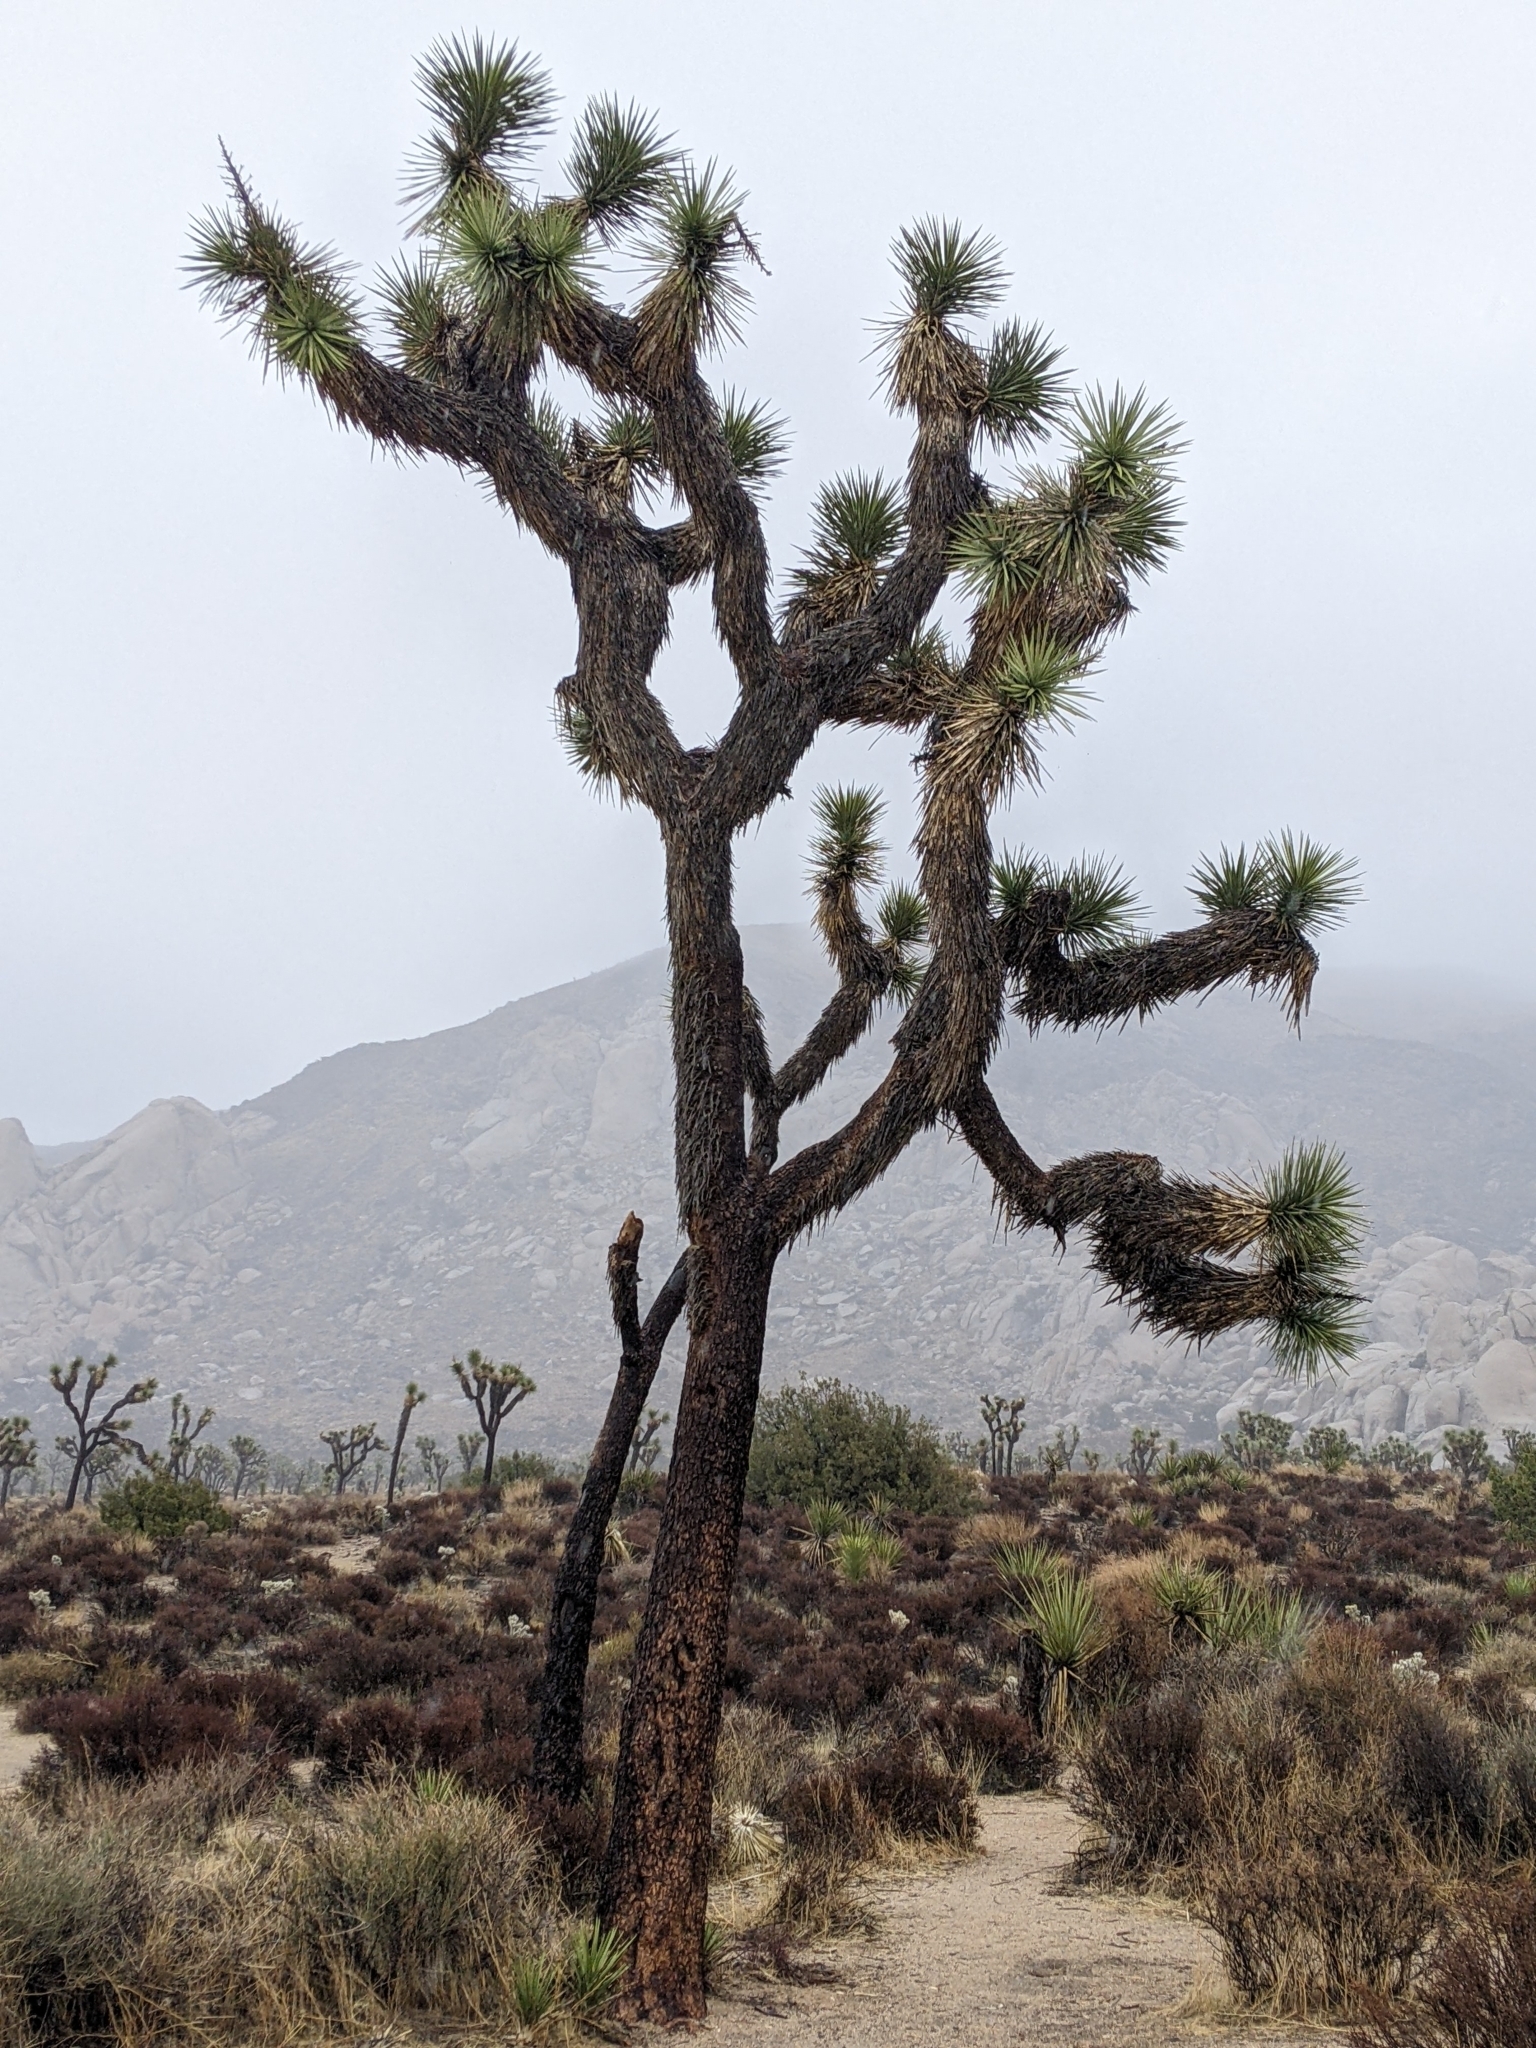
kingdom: Plantae
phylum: Tracheophyta
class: Liliopsida
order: Asparagales
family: Asparagaceae
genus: Yucca
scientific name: Yucca brevifolia
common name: Joshua tree
